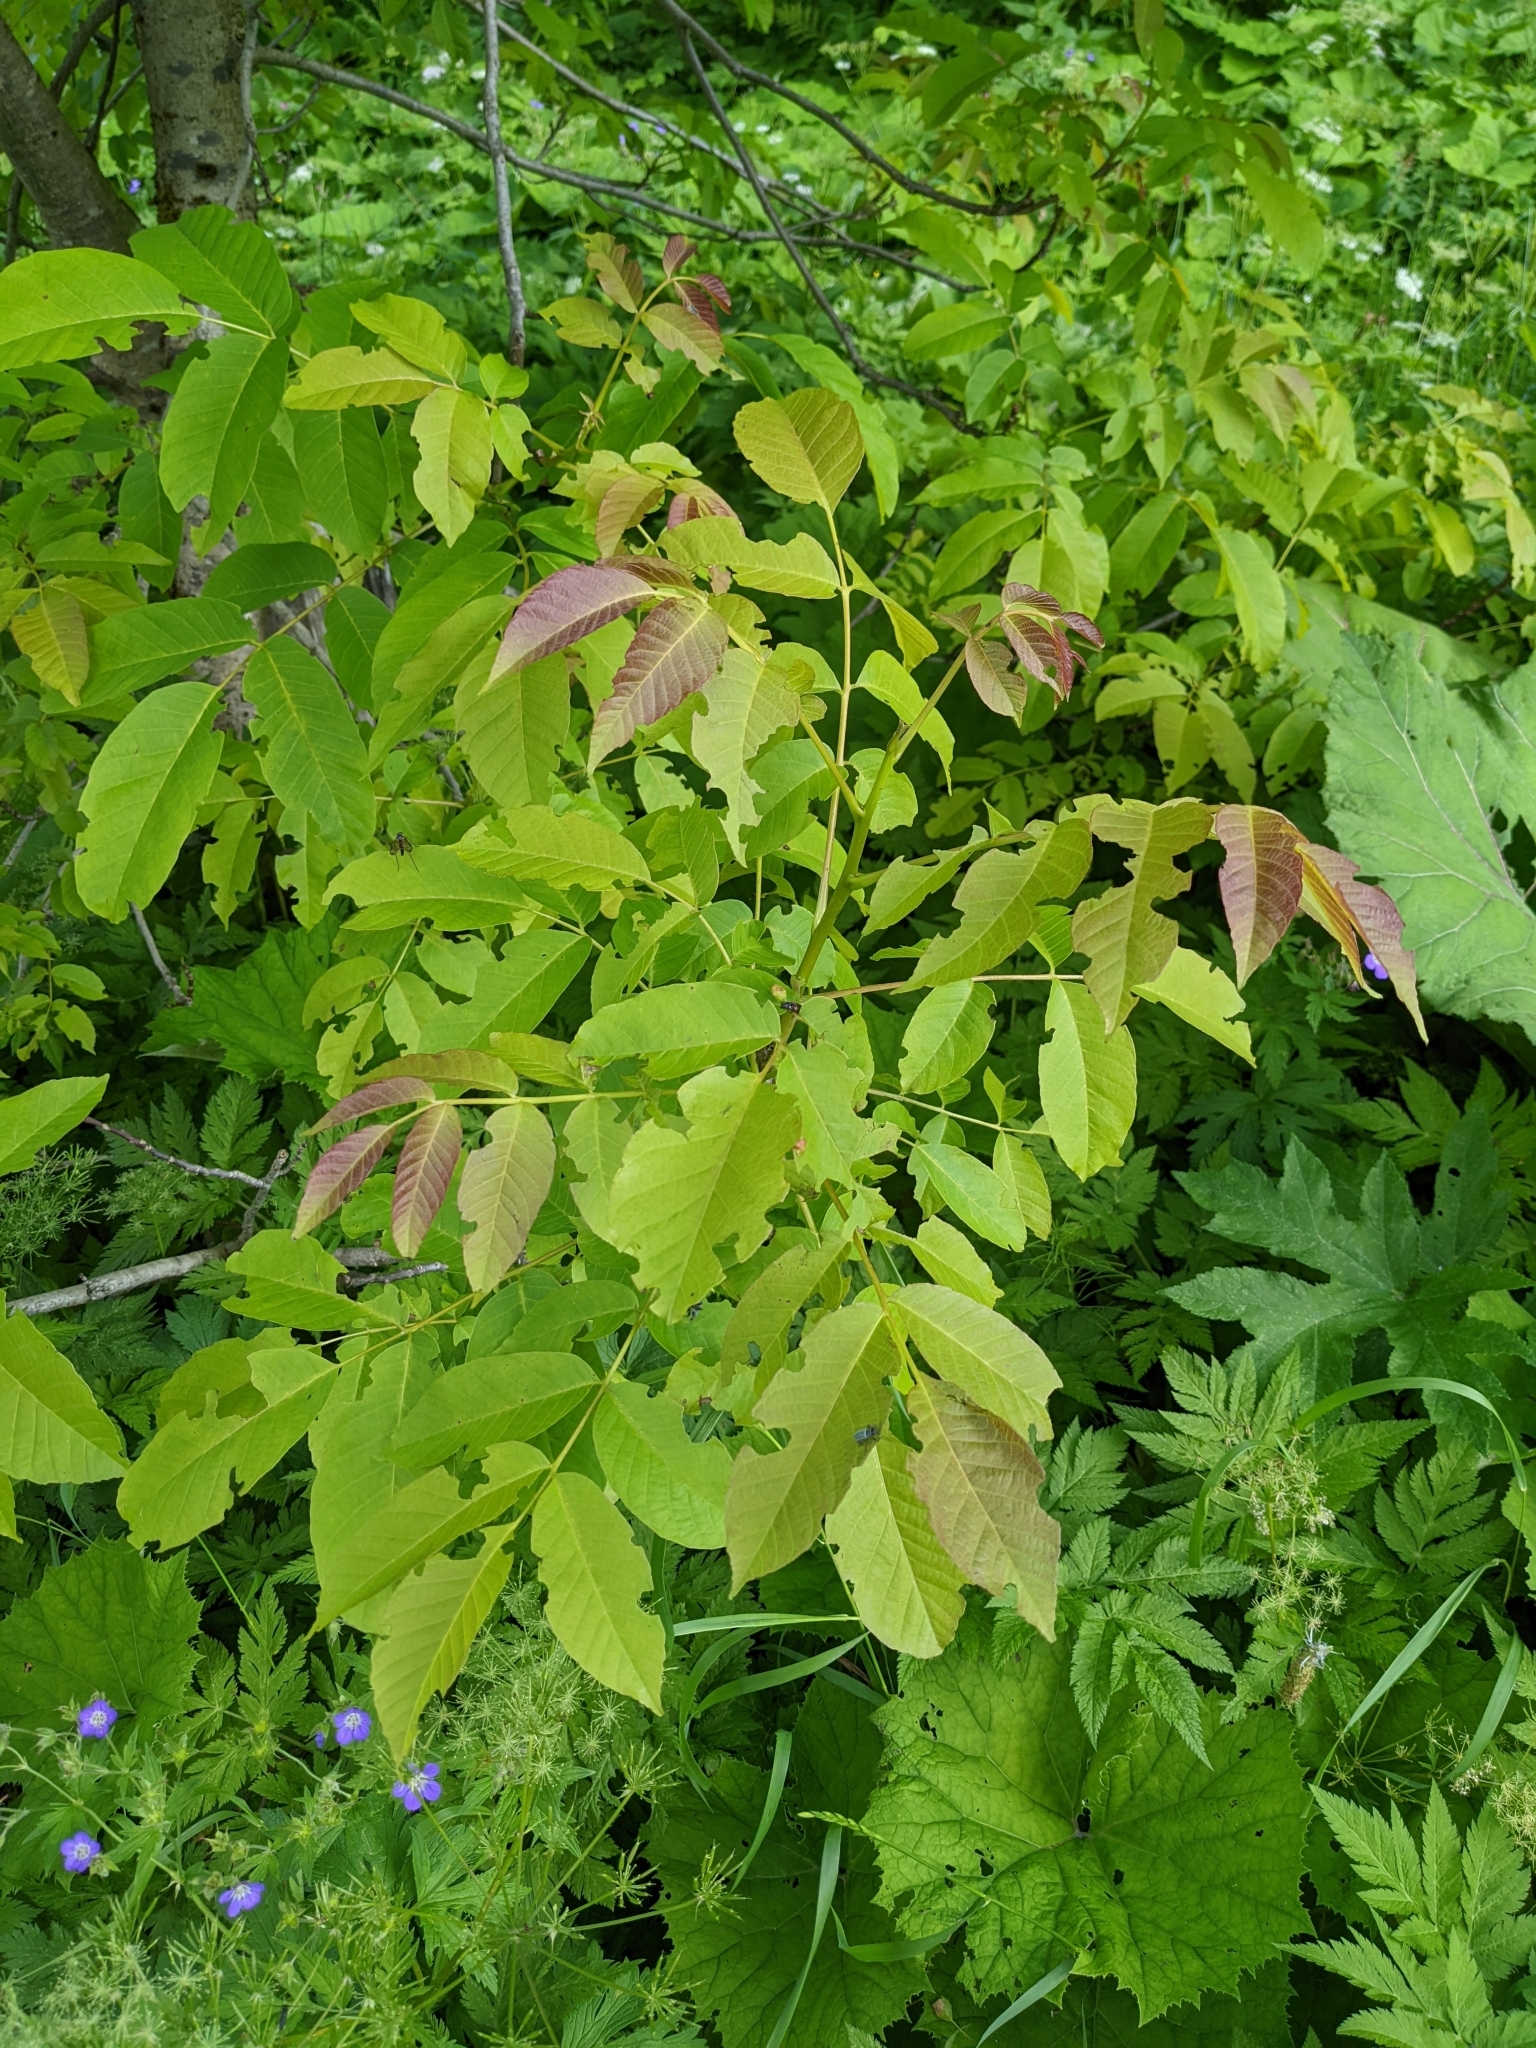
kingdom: Plantae
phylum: Tracheophyta
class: Magnoliopsida
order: Fagales
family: Juglandaceae
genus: Juglans
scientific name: Juglans regia
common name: Walnut
